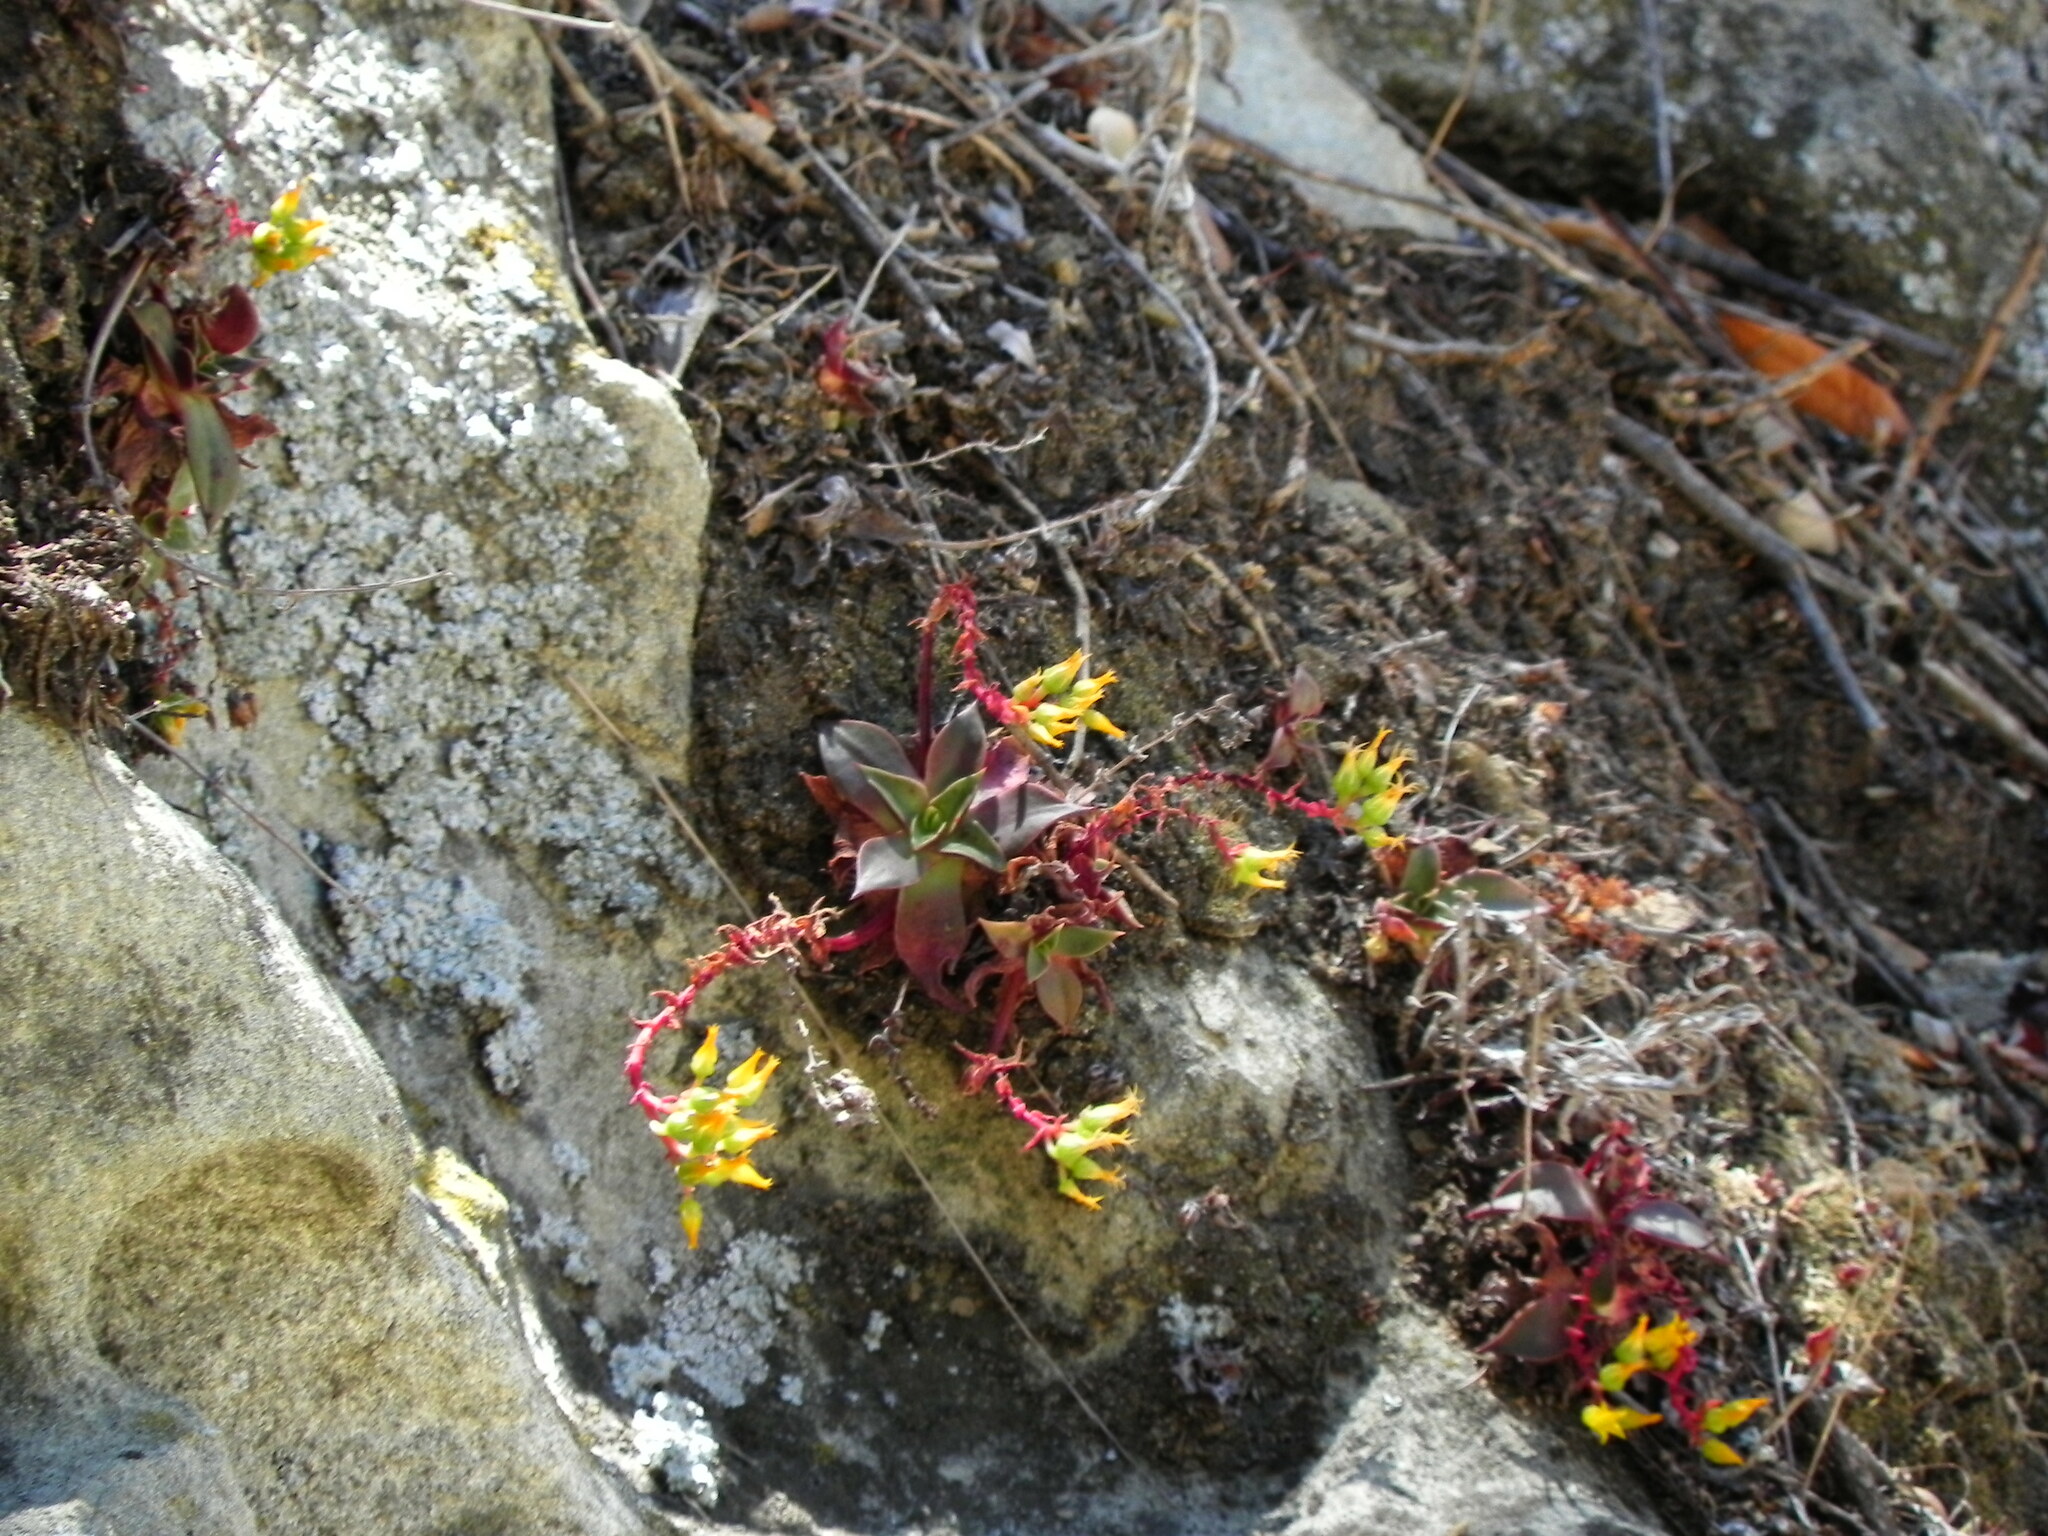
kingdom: Plantae
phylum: Tracheophyta
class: Magnoliopsida
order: Saxifragales
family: Crassulaceae
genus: Dudleya
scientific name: Dudleya cymosa
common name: Canyon dudleya
